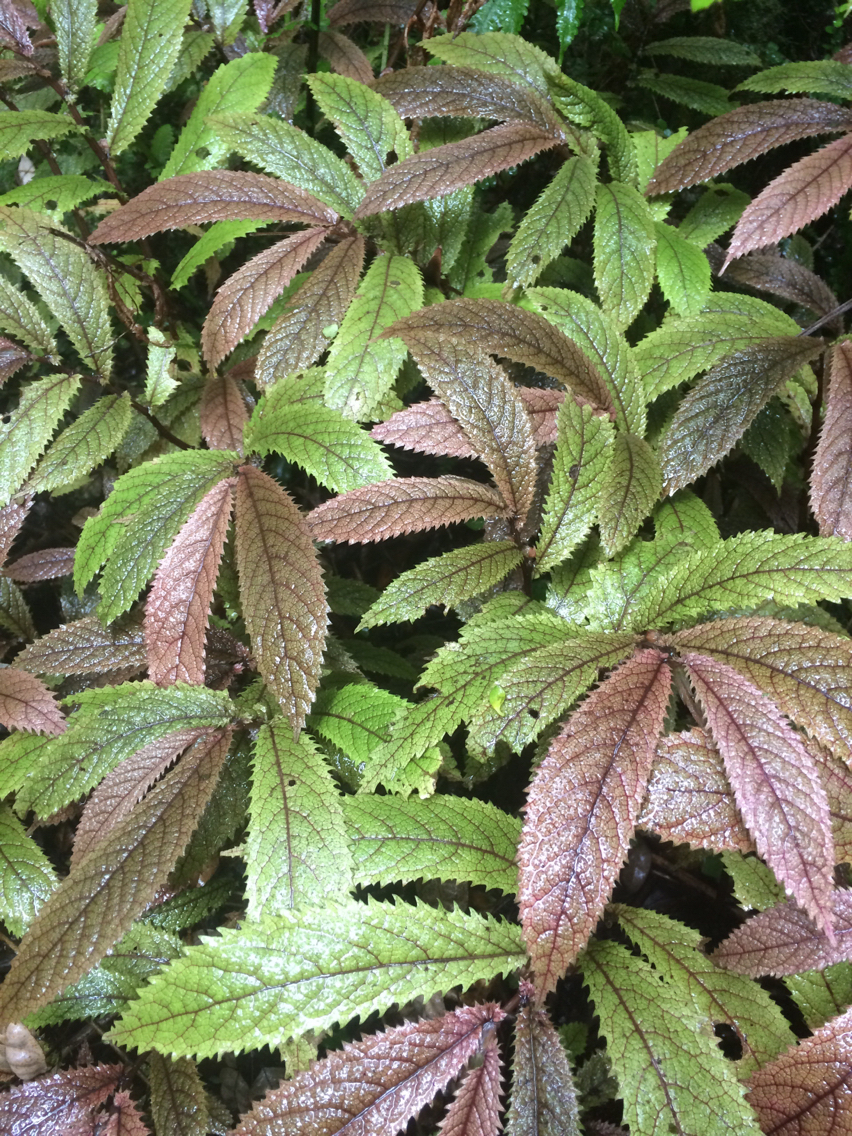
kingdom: Plantae
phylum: Tracheophyta
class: Magnoliopsida
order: Rosales
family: Urticaceae
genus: Elatostema
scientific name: Elatostema rugosum
